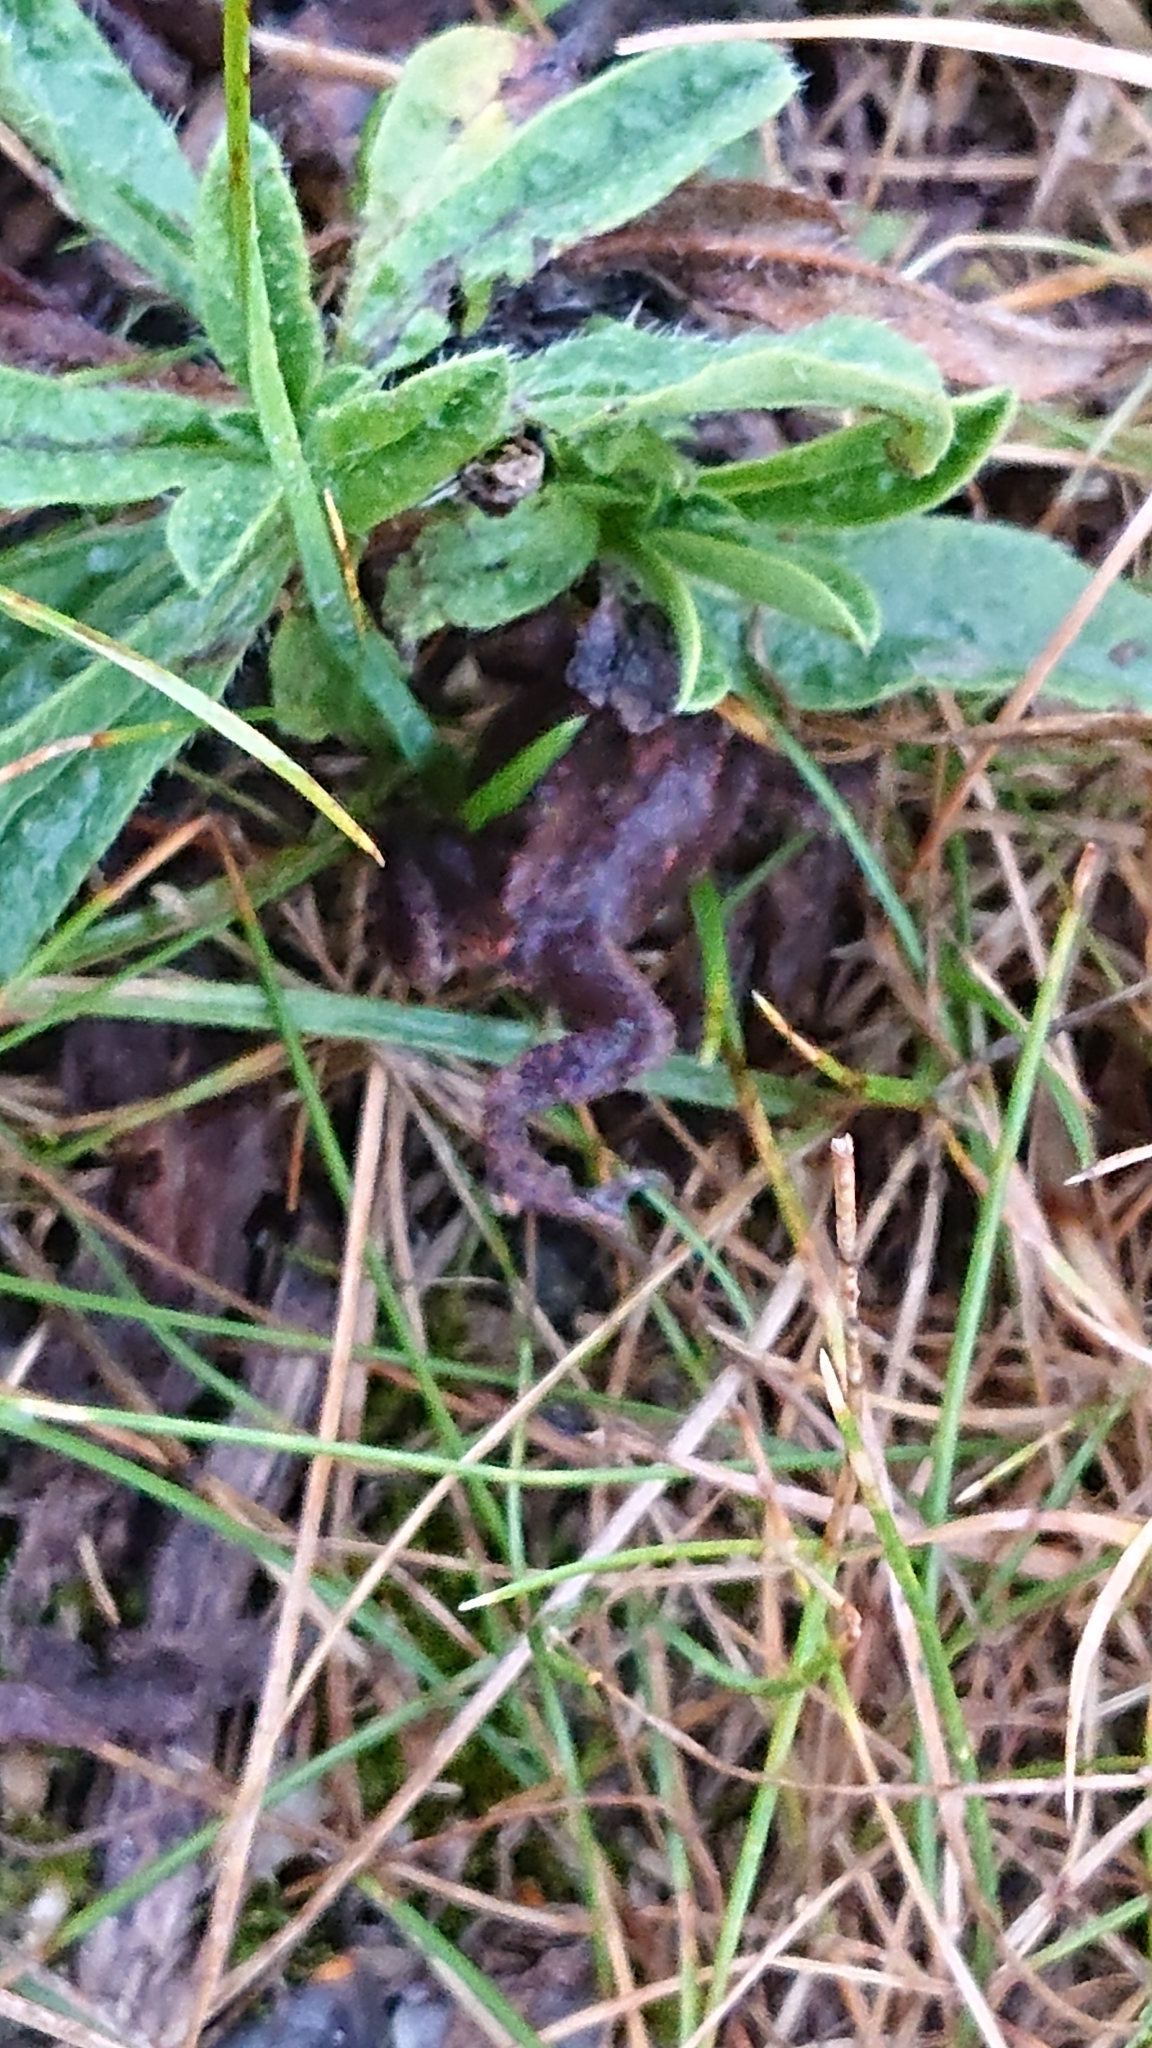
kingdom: Animalia
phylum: Chordata
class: Amphibia
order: Anura
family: Bufonidae
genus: Bufo
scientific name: Bufo bufo
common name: Common toad
